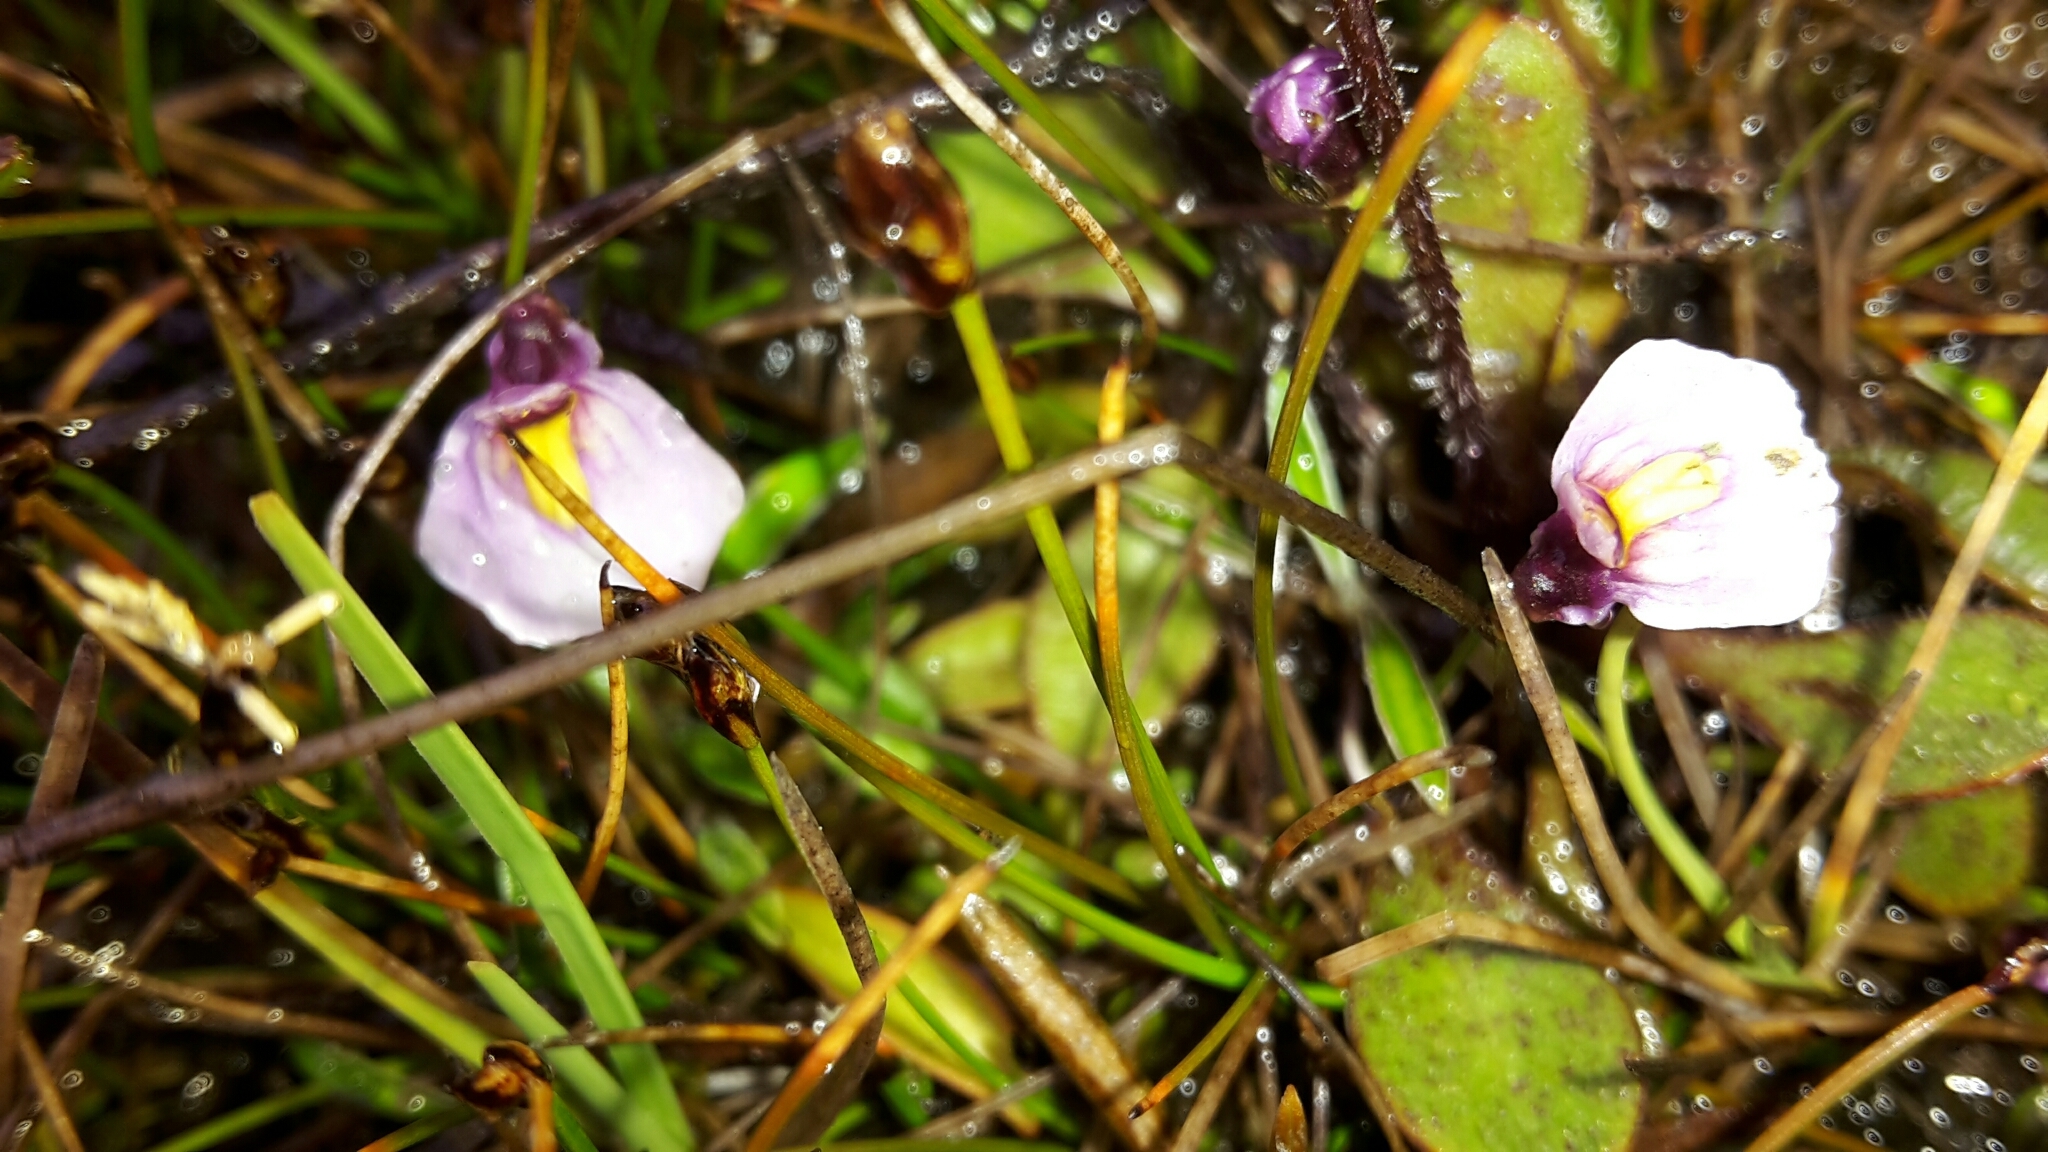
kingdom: Plantae
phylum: Tracheophyta
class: Magnoliopsida
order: Lamiales
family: Lentibulariaceae
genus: Utricularia
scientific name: Utricularia dichotoma
